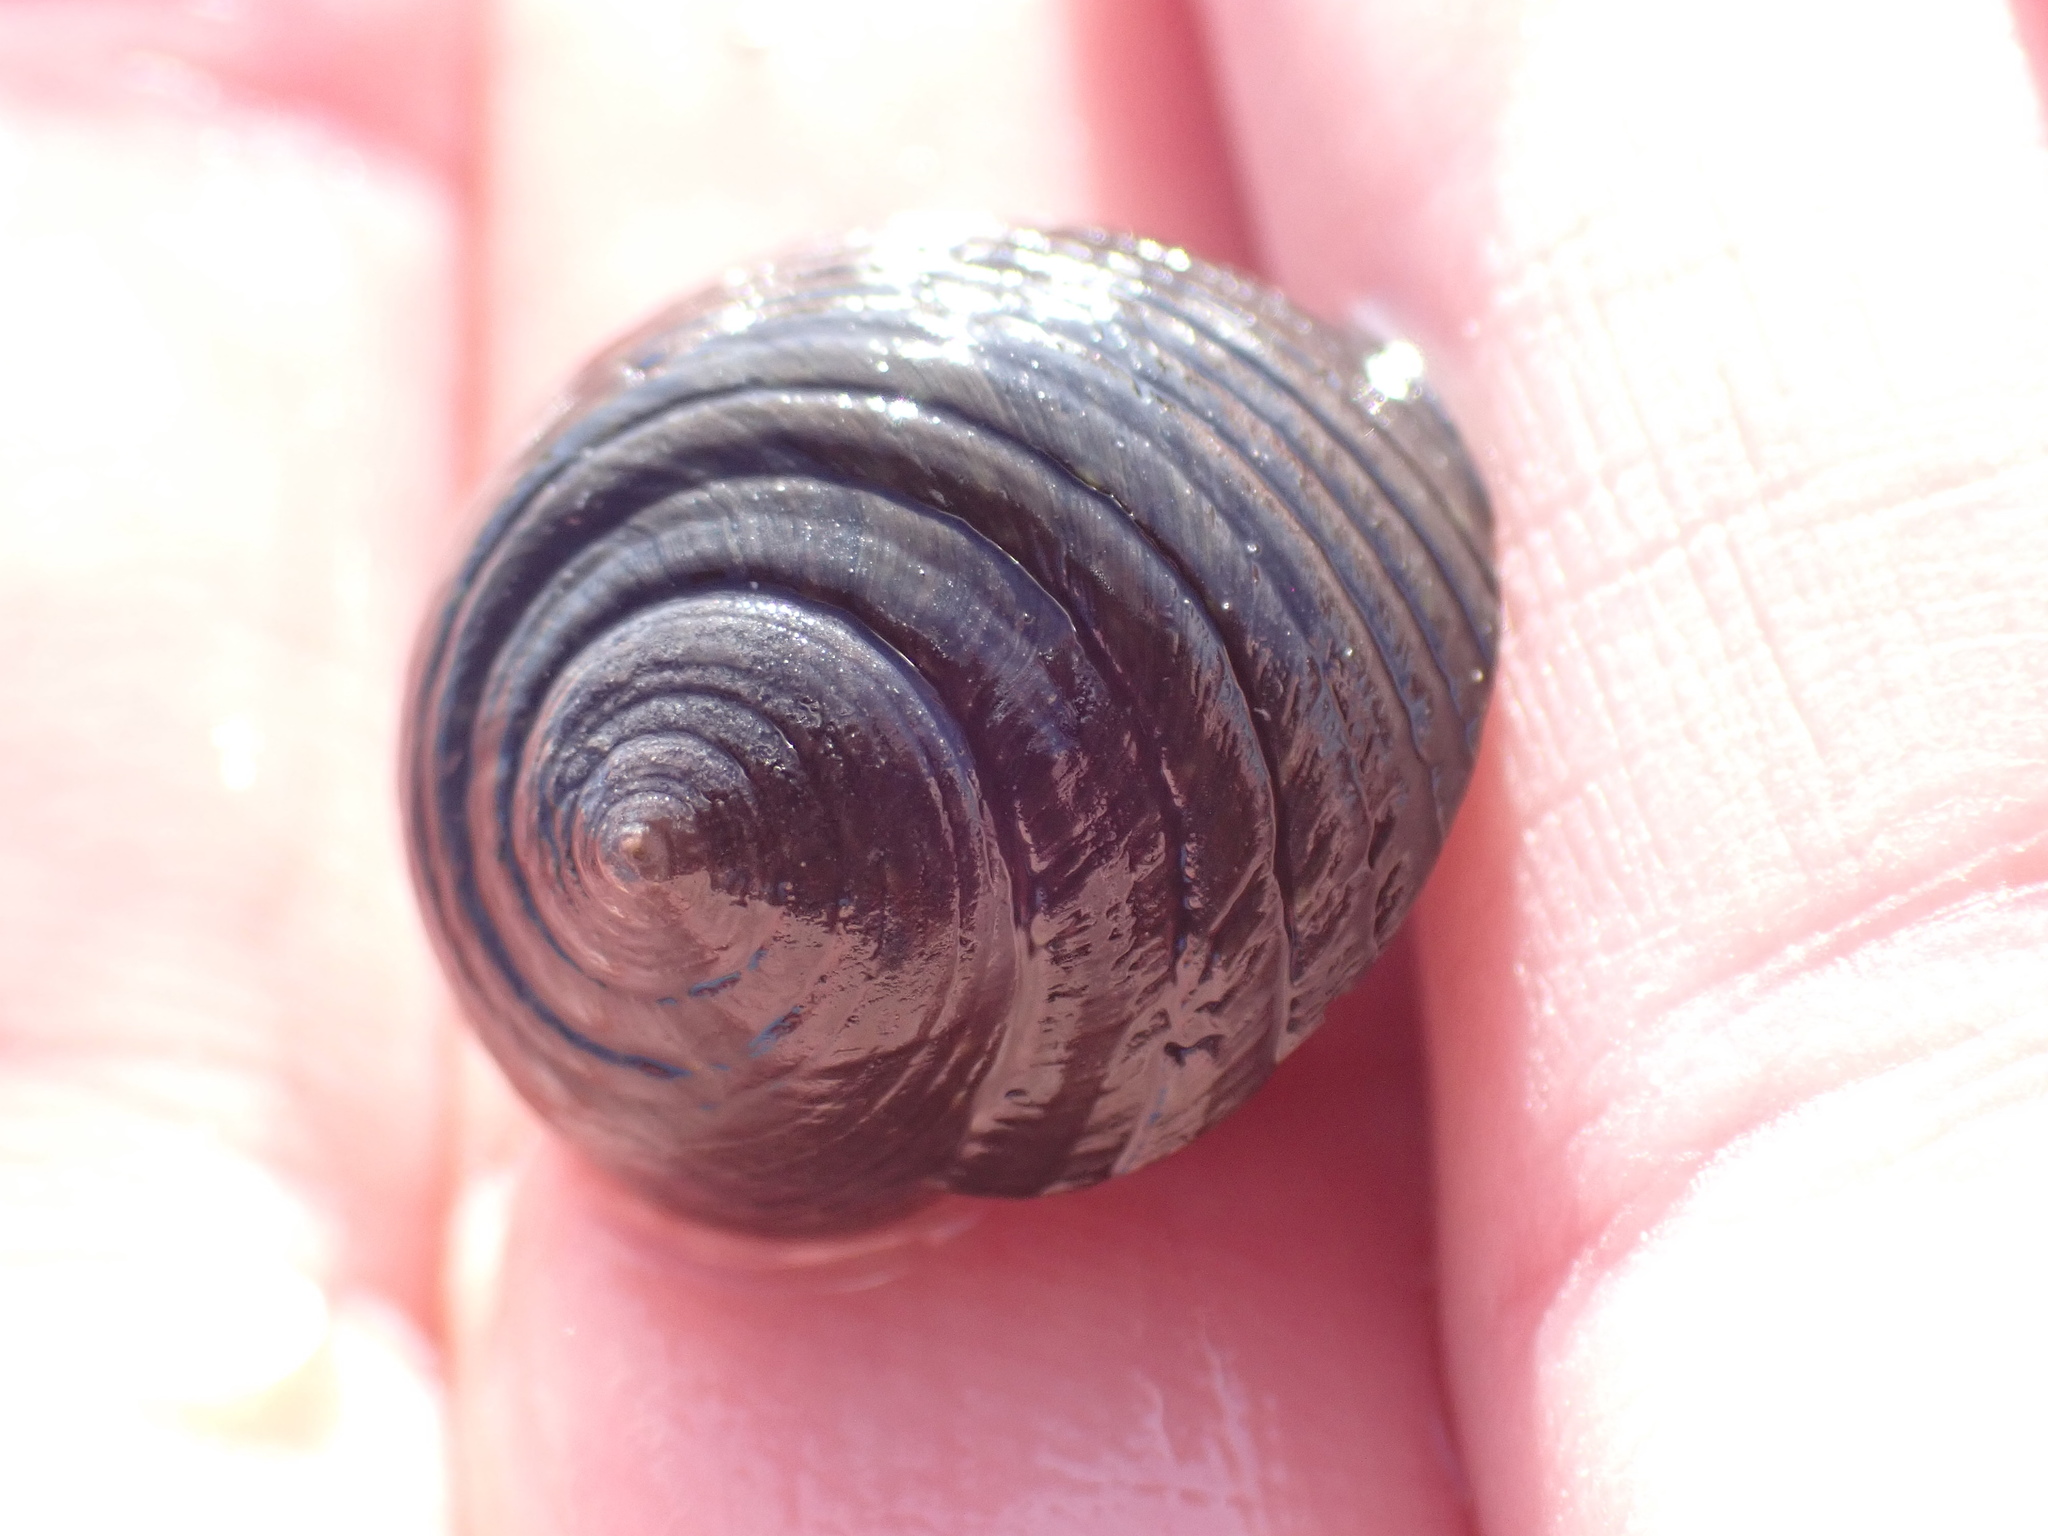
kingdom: Animalia
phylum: Mollusca
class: Gastropoda
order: Trochida
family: Trochidae
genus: Diloma
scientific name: Diloma zelandicum
